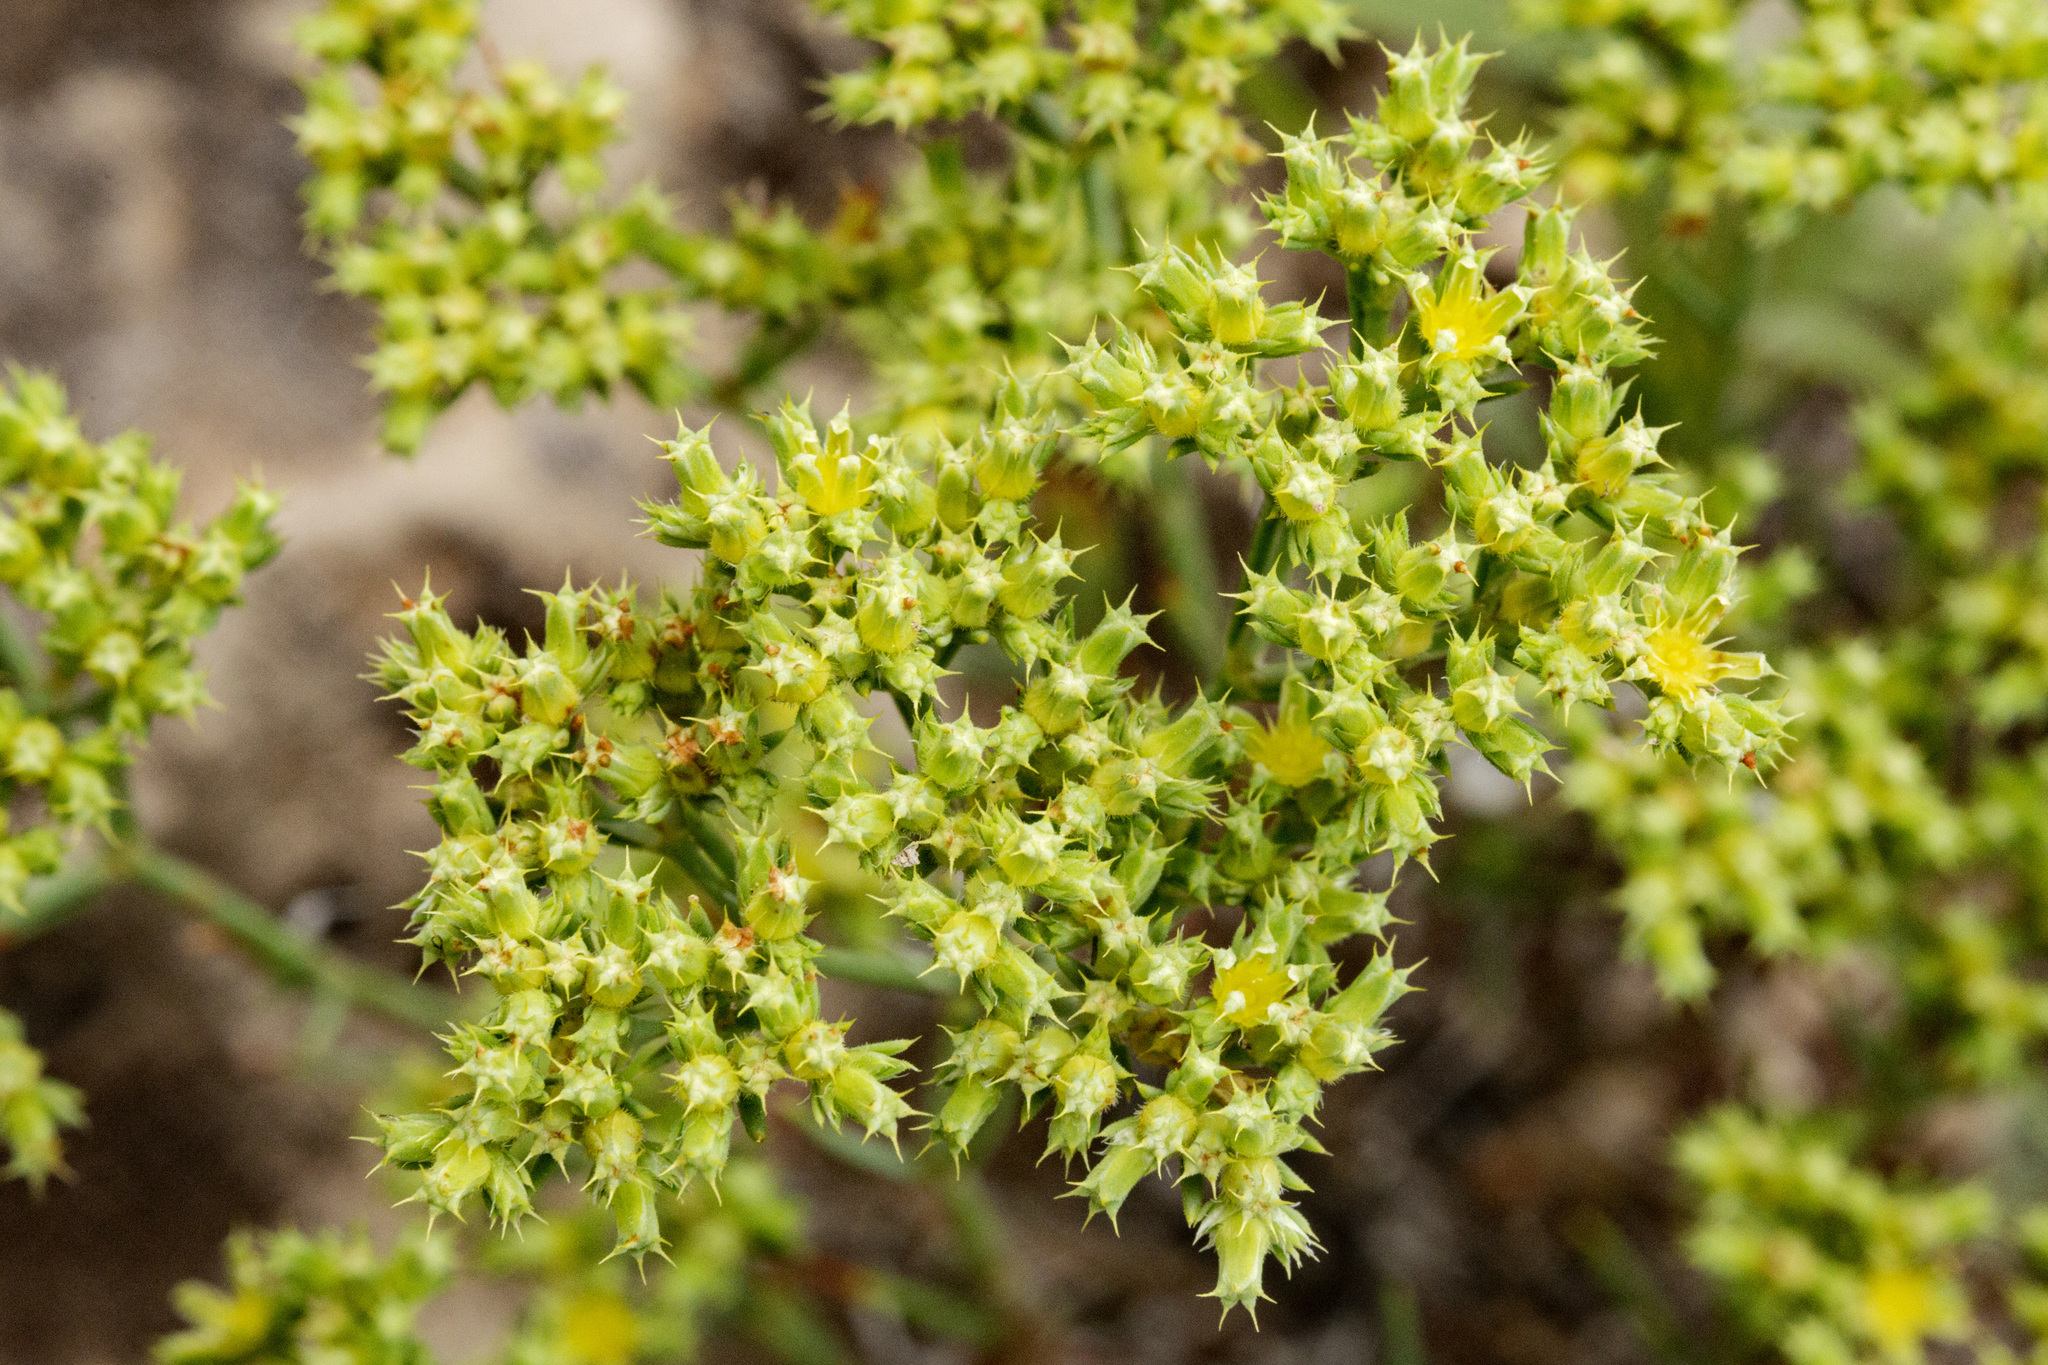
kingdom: Plantae
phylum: Tracheophyta
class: Magnoliopsida
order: Caryophyllales
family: Caryophyllaceae
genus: Paronychia
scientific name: Paronychia jamesii
